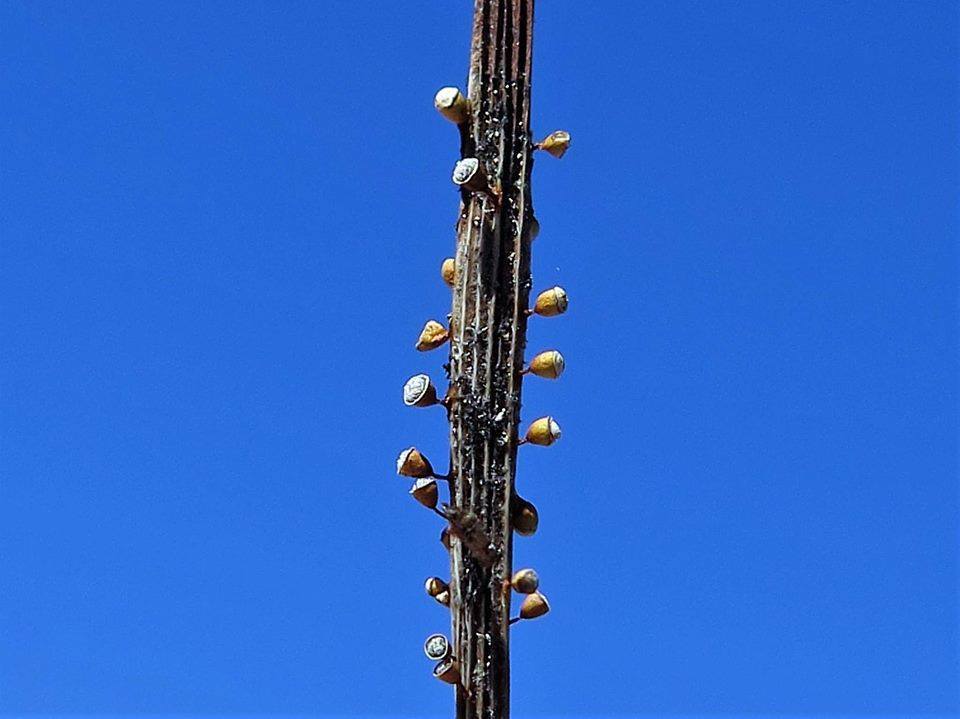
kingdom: Protozoa
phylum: Mycetozoa
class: Myxomycetes
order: Physarales
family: Physaraceae
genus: Craterium
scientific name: Craterium minutum
